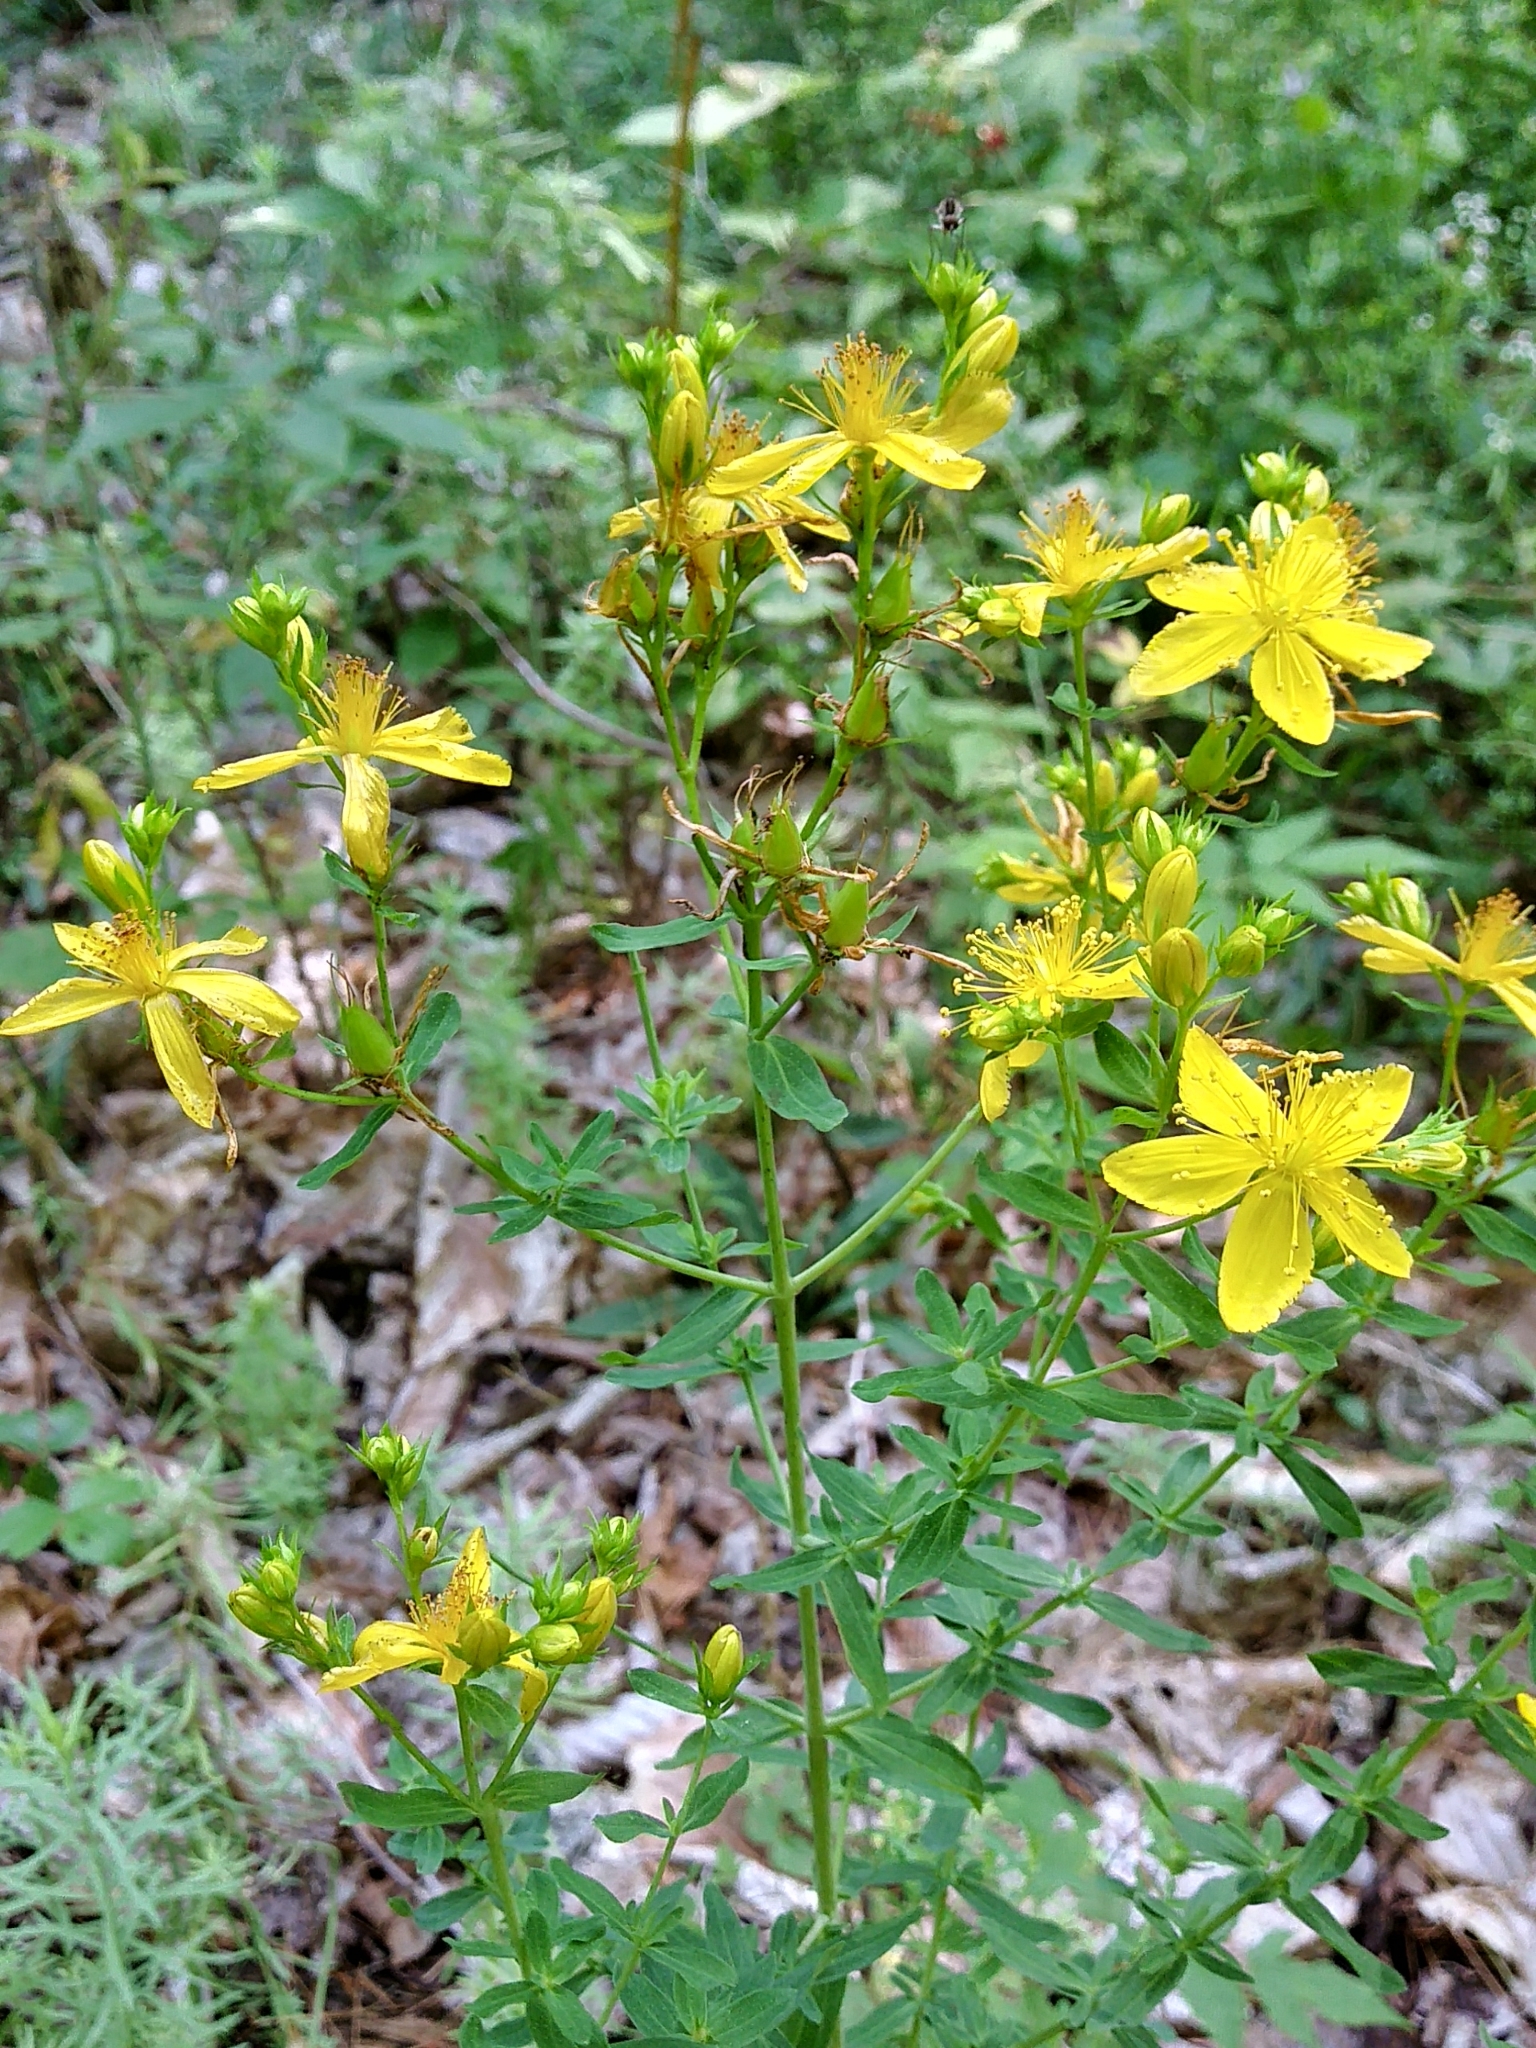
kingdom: Plantae
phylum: Tracheophyta
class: Magnoliopsida
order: Malpighiales
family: Hypericaceae
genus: Hypericum
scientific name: Hypericum perforatum
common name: Common st. johnswort
